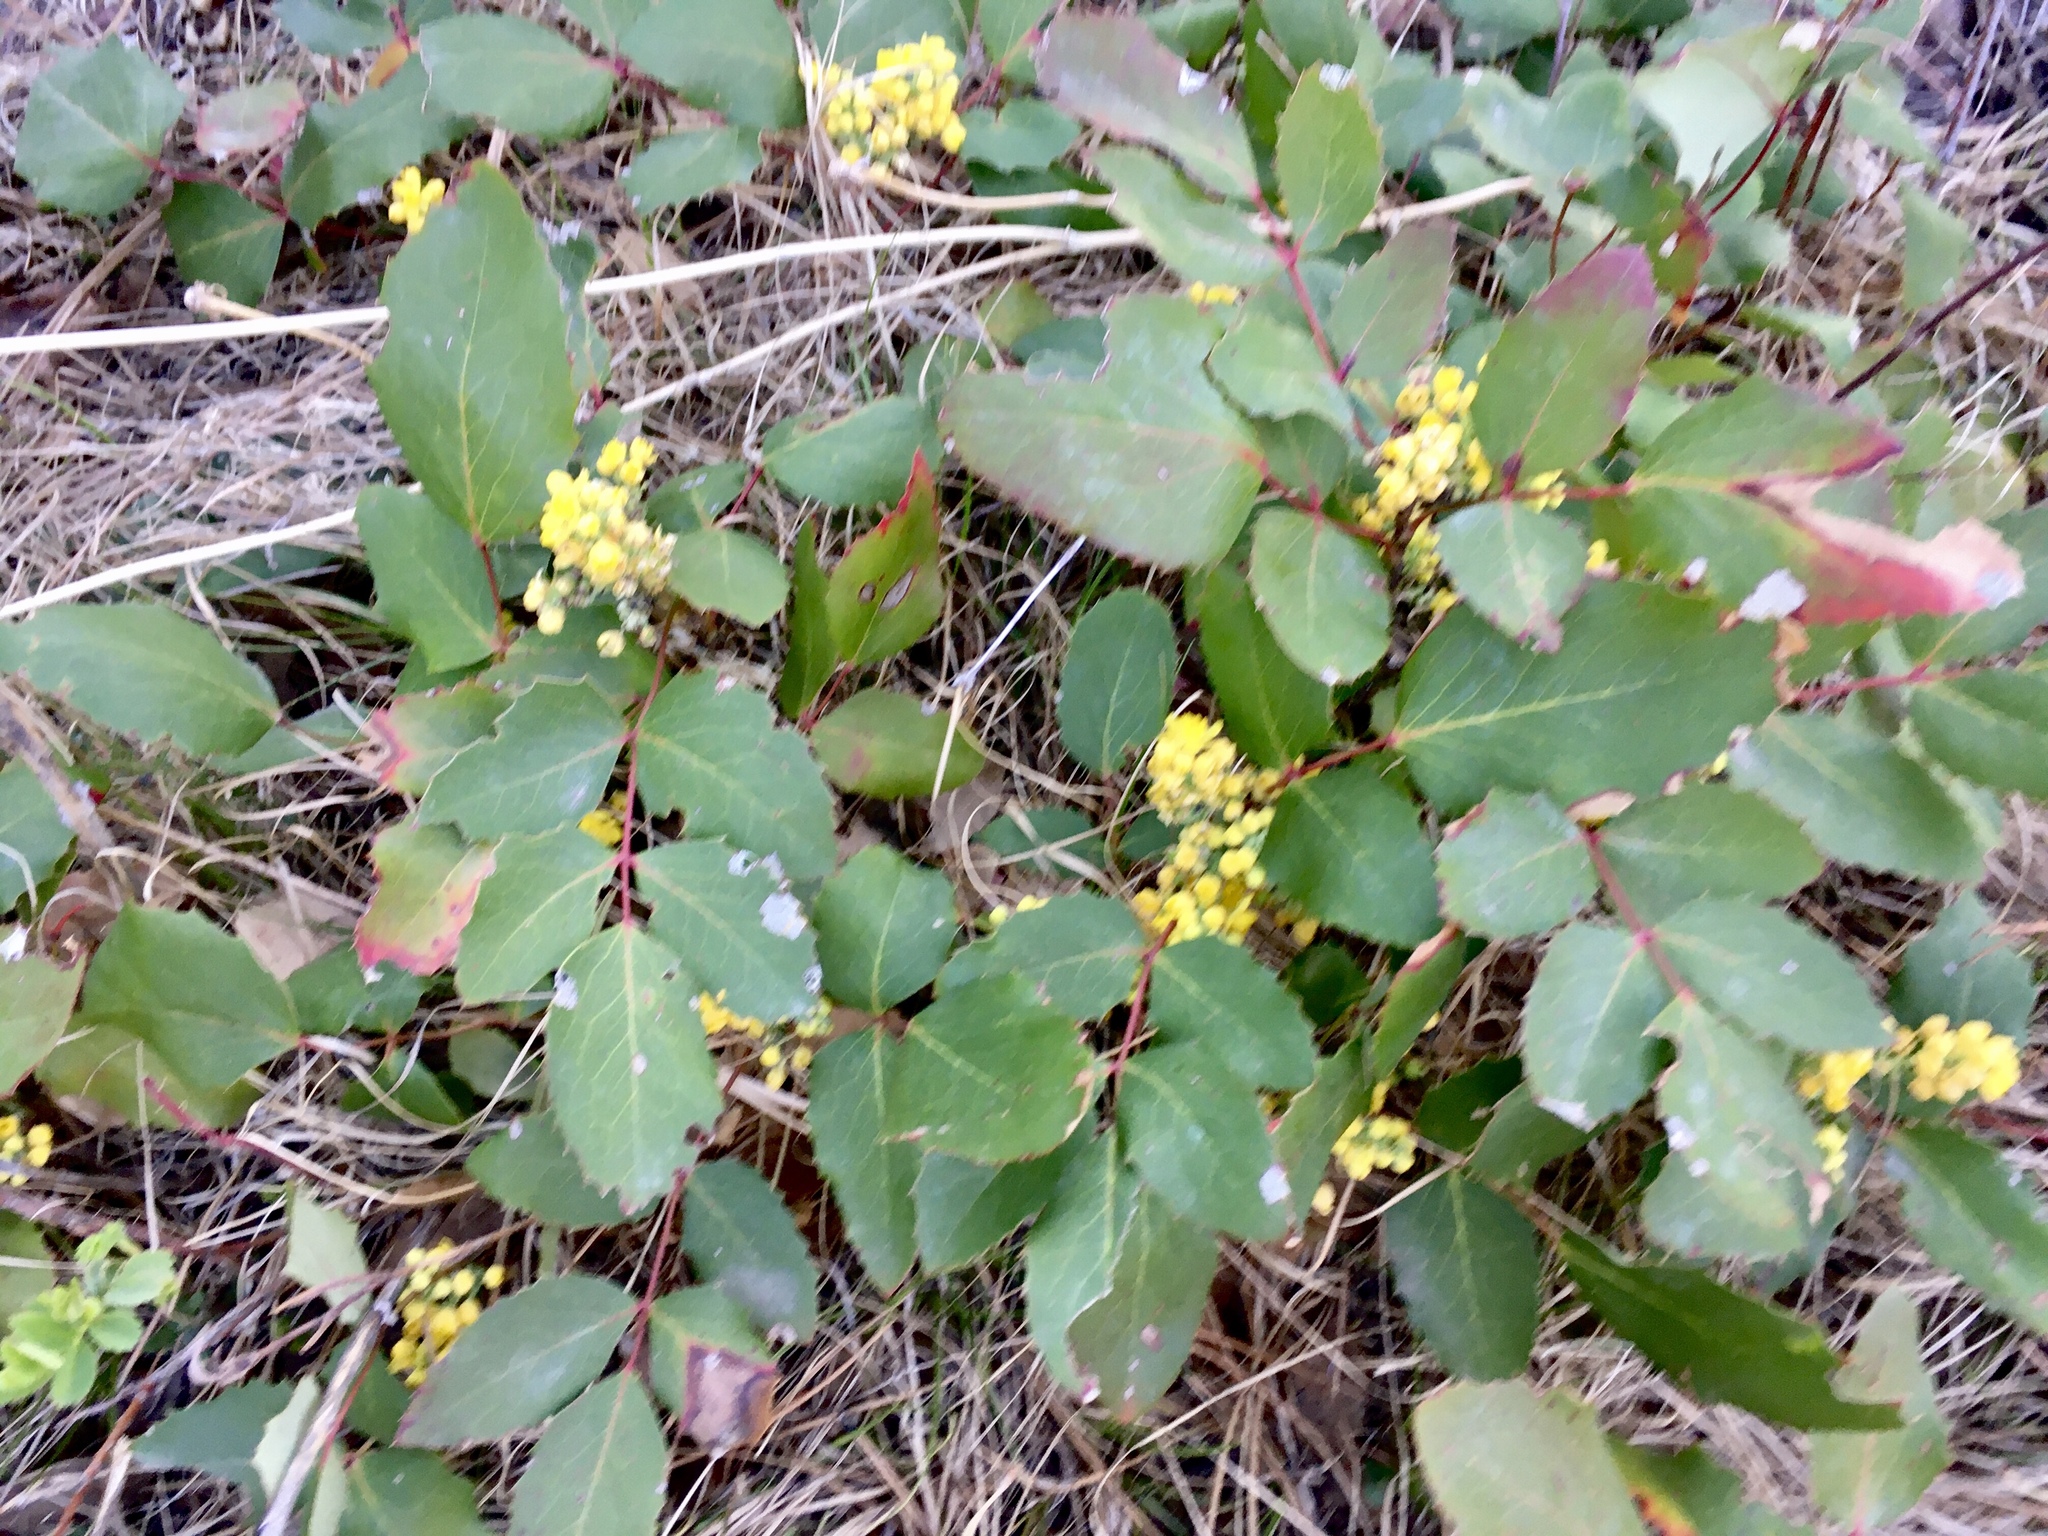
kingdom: Plantae
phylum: Tracheophyta
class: Magnoliopsida
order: Ranunculales
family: Berberidaceae
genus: Mahonia
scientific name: Mahonia repens
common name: Creeping oregon-grape
